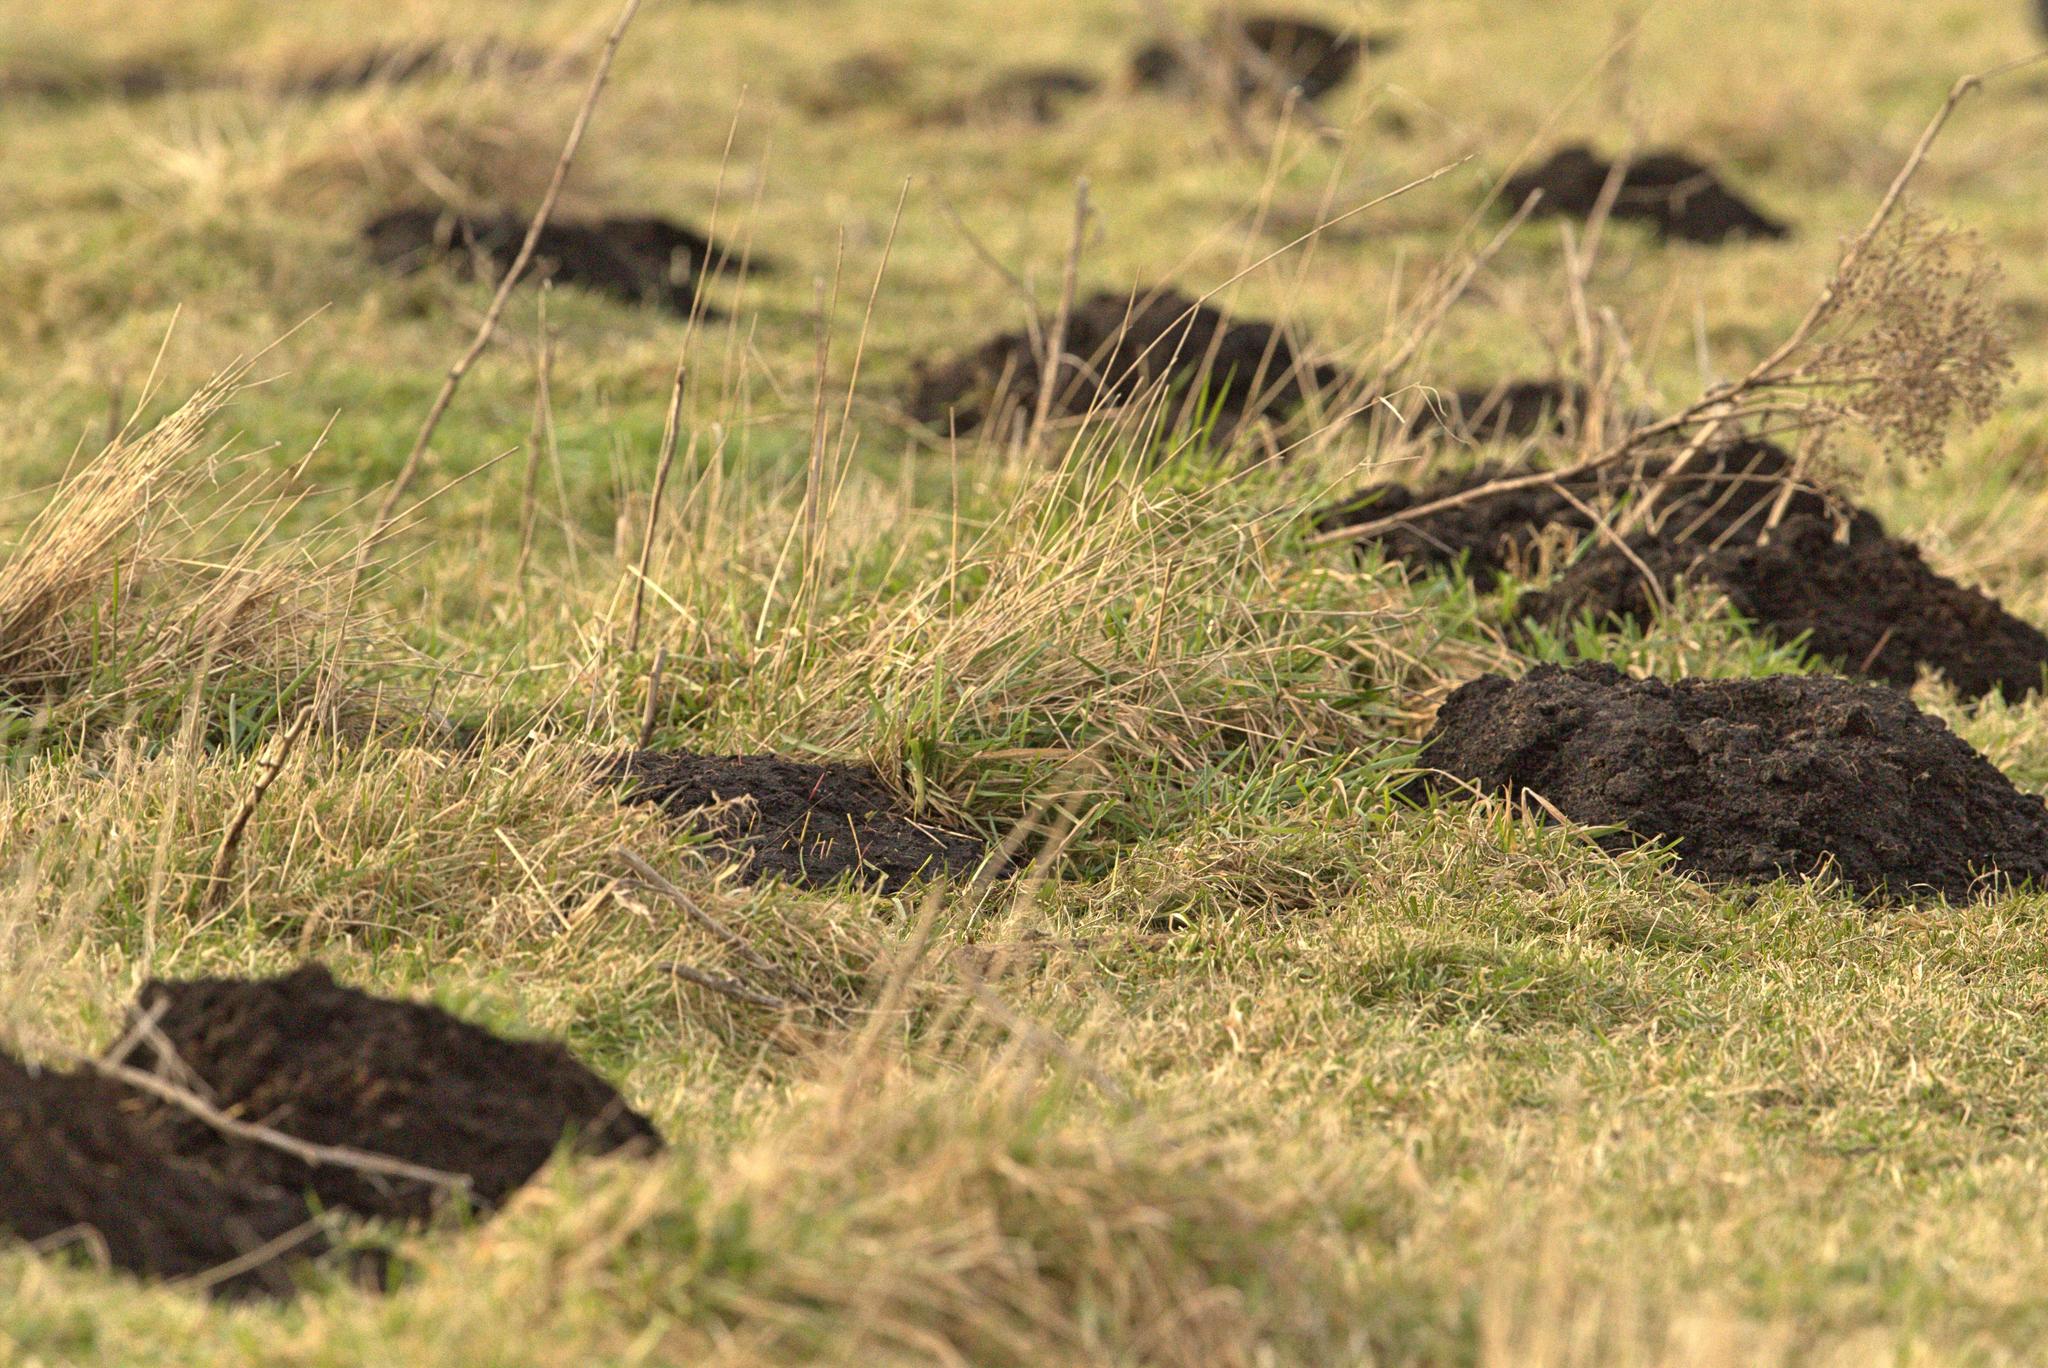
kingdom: Animalia
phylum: Chordata
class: Mammalia
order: Soricomorpha
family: Talpidae
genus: Talpa
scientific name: Talpa europaea
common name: European mole
